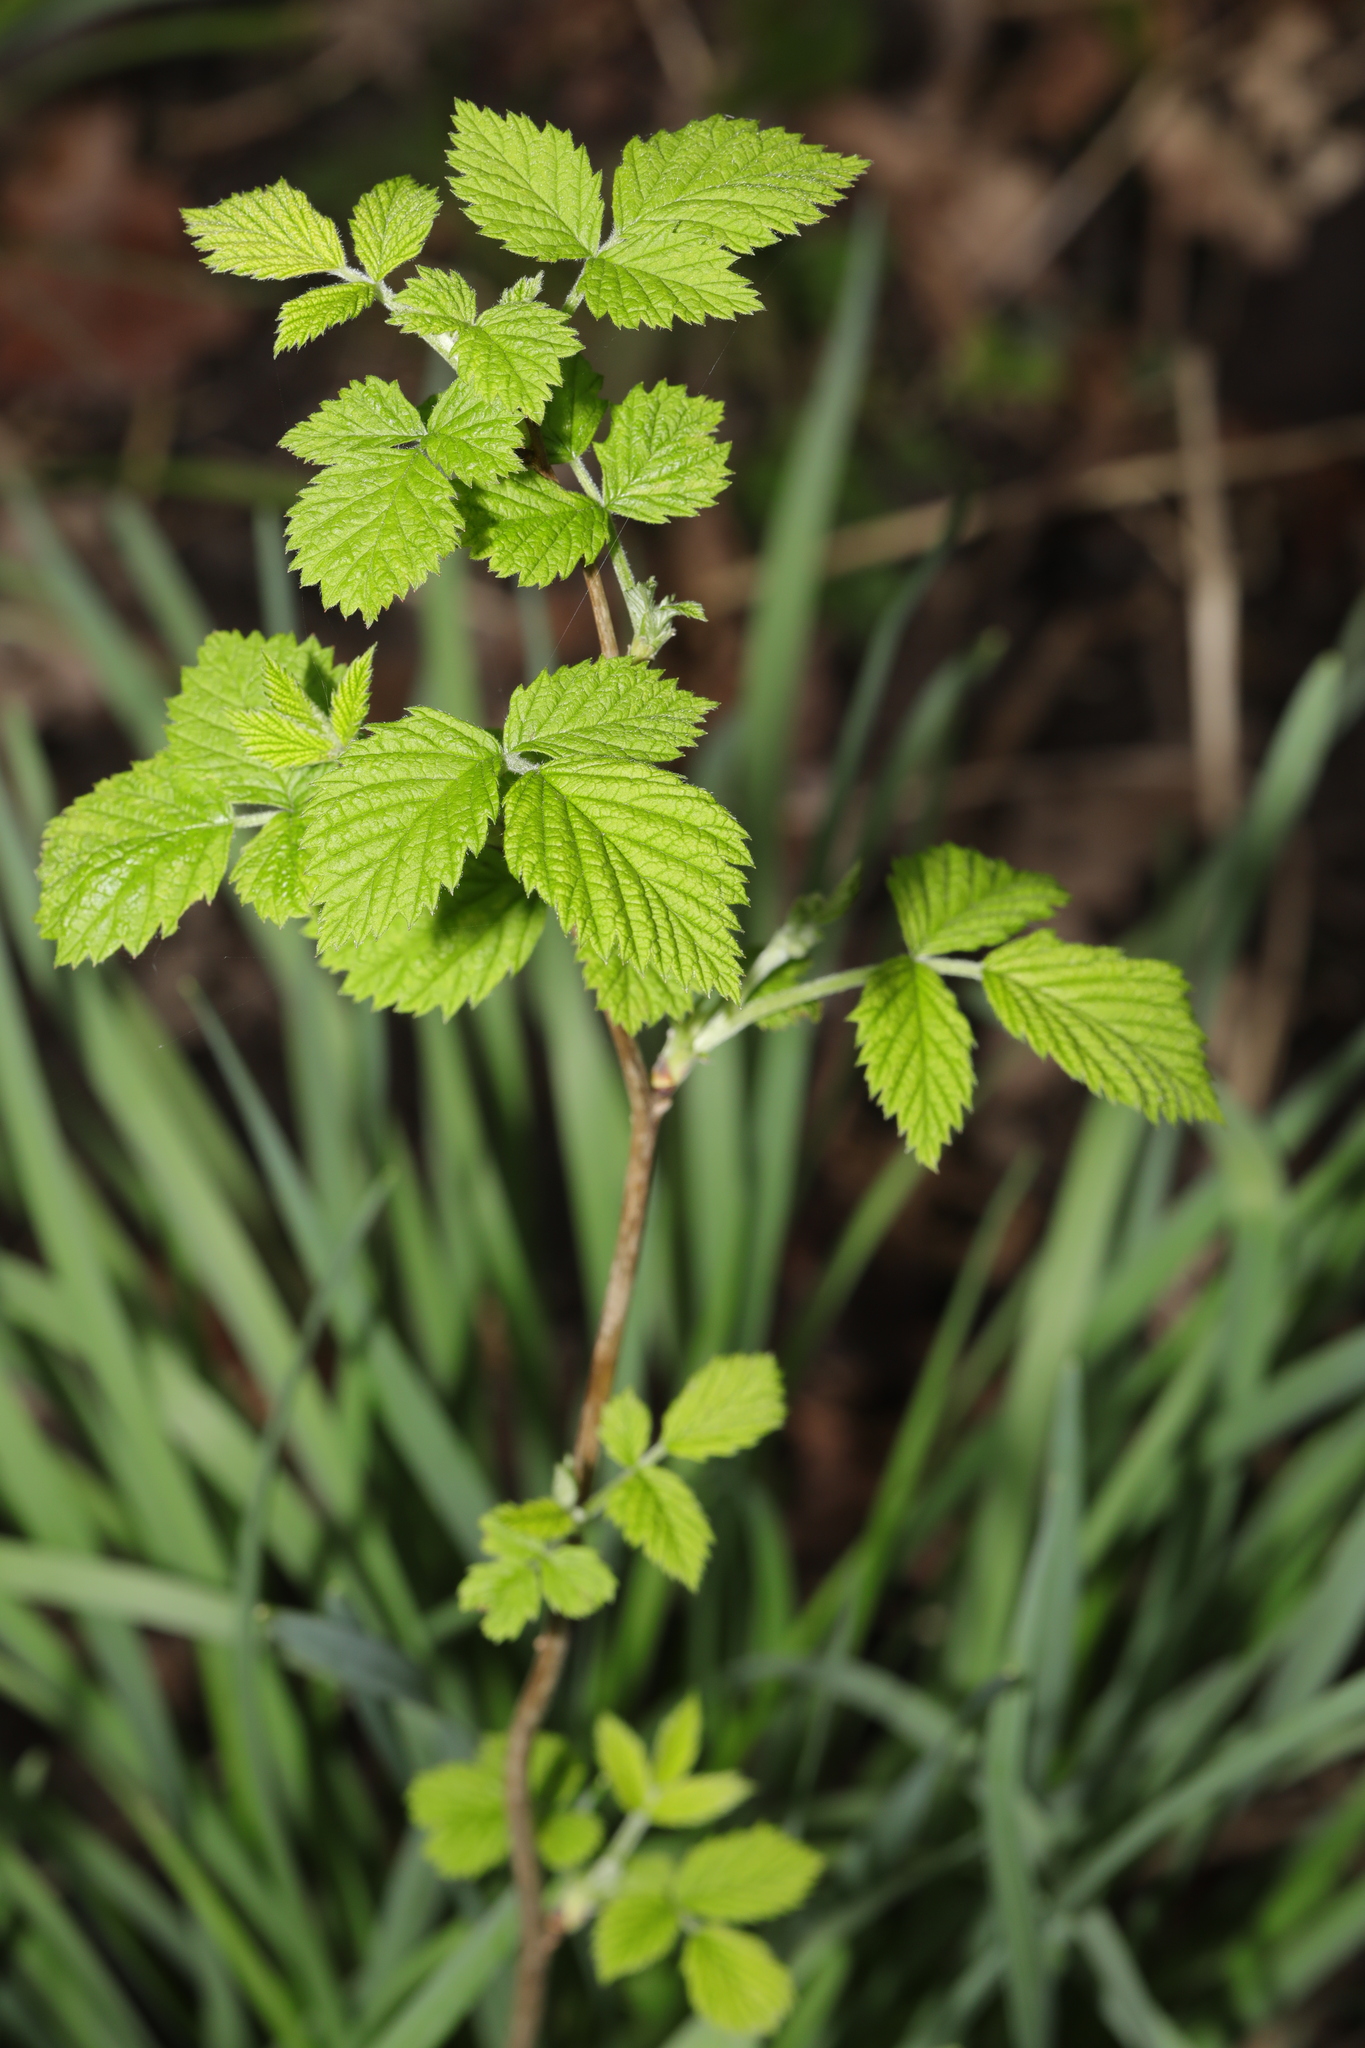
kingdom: Plantae
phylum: Tracheophyta
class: Magnoliopsida
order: Rosales
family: Rosaceae
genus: Rubus
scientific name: Rubus idaeus
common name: Raspberry
